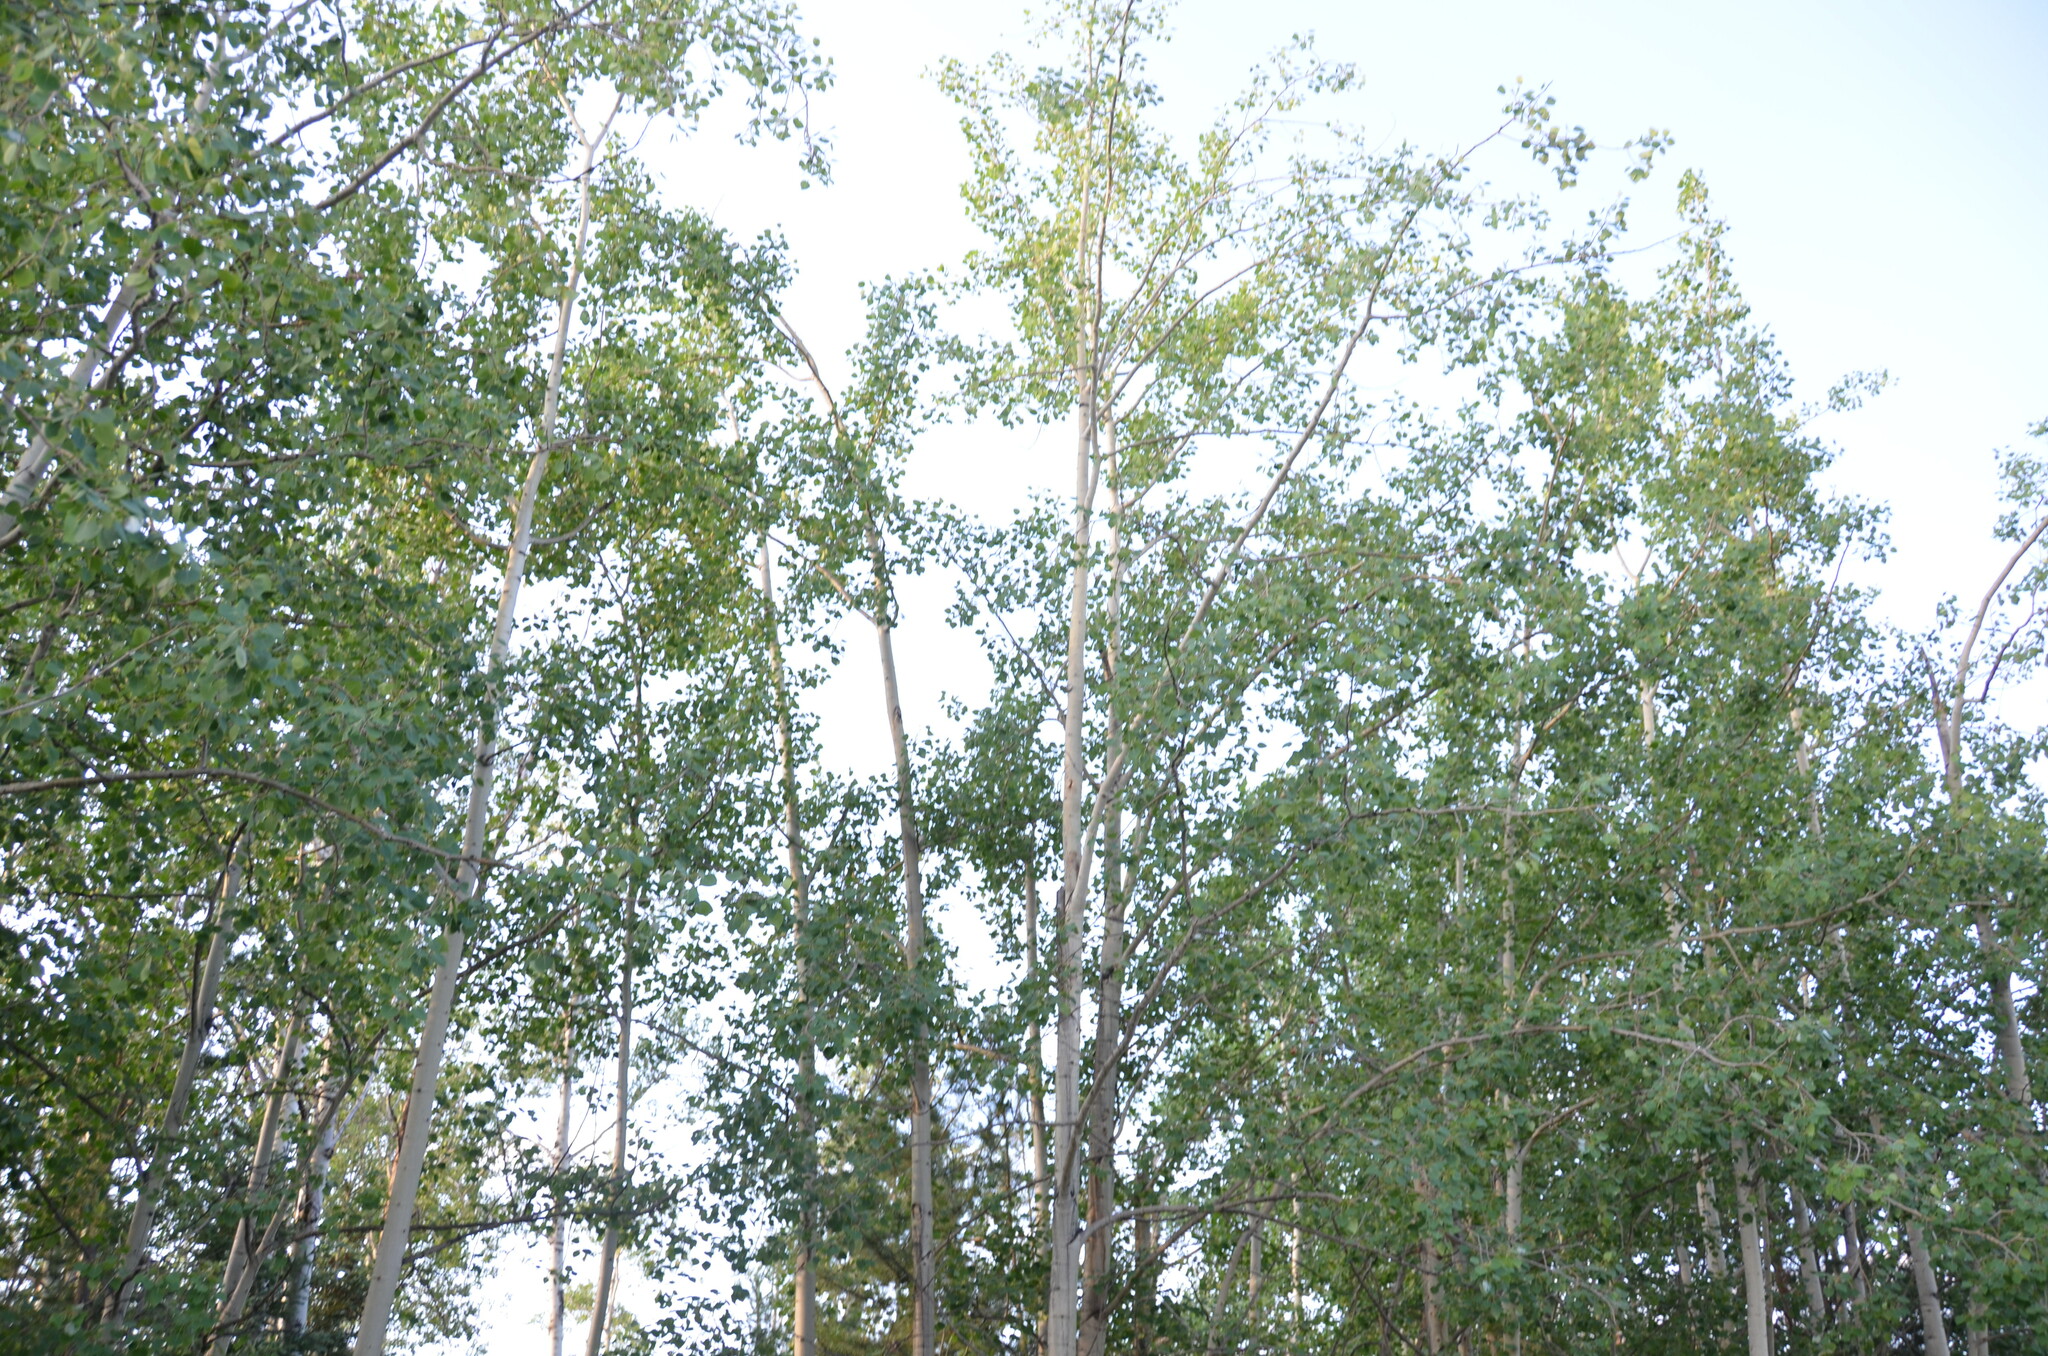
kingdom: Plantae
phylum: Tracheophyta
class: Magnoliopsida
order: Malpighiales
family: Salicaceae
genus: Populus
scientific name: Populus tremuloides
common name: Quaking aspen
